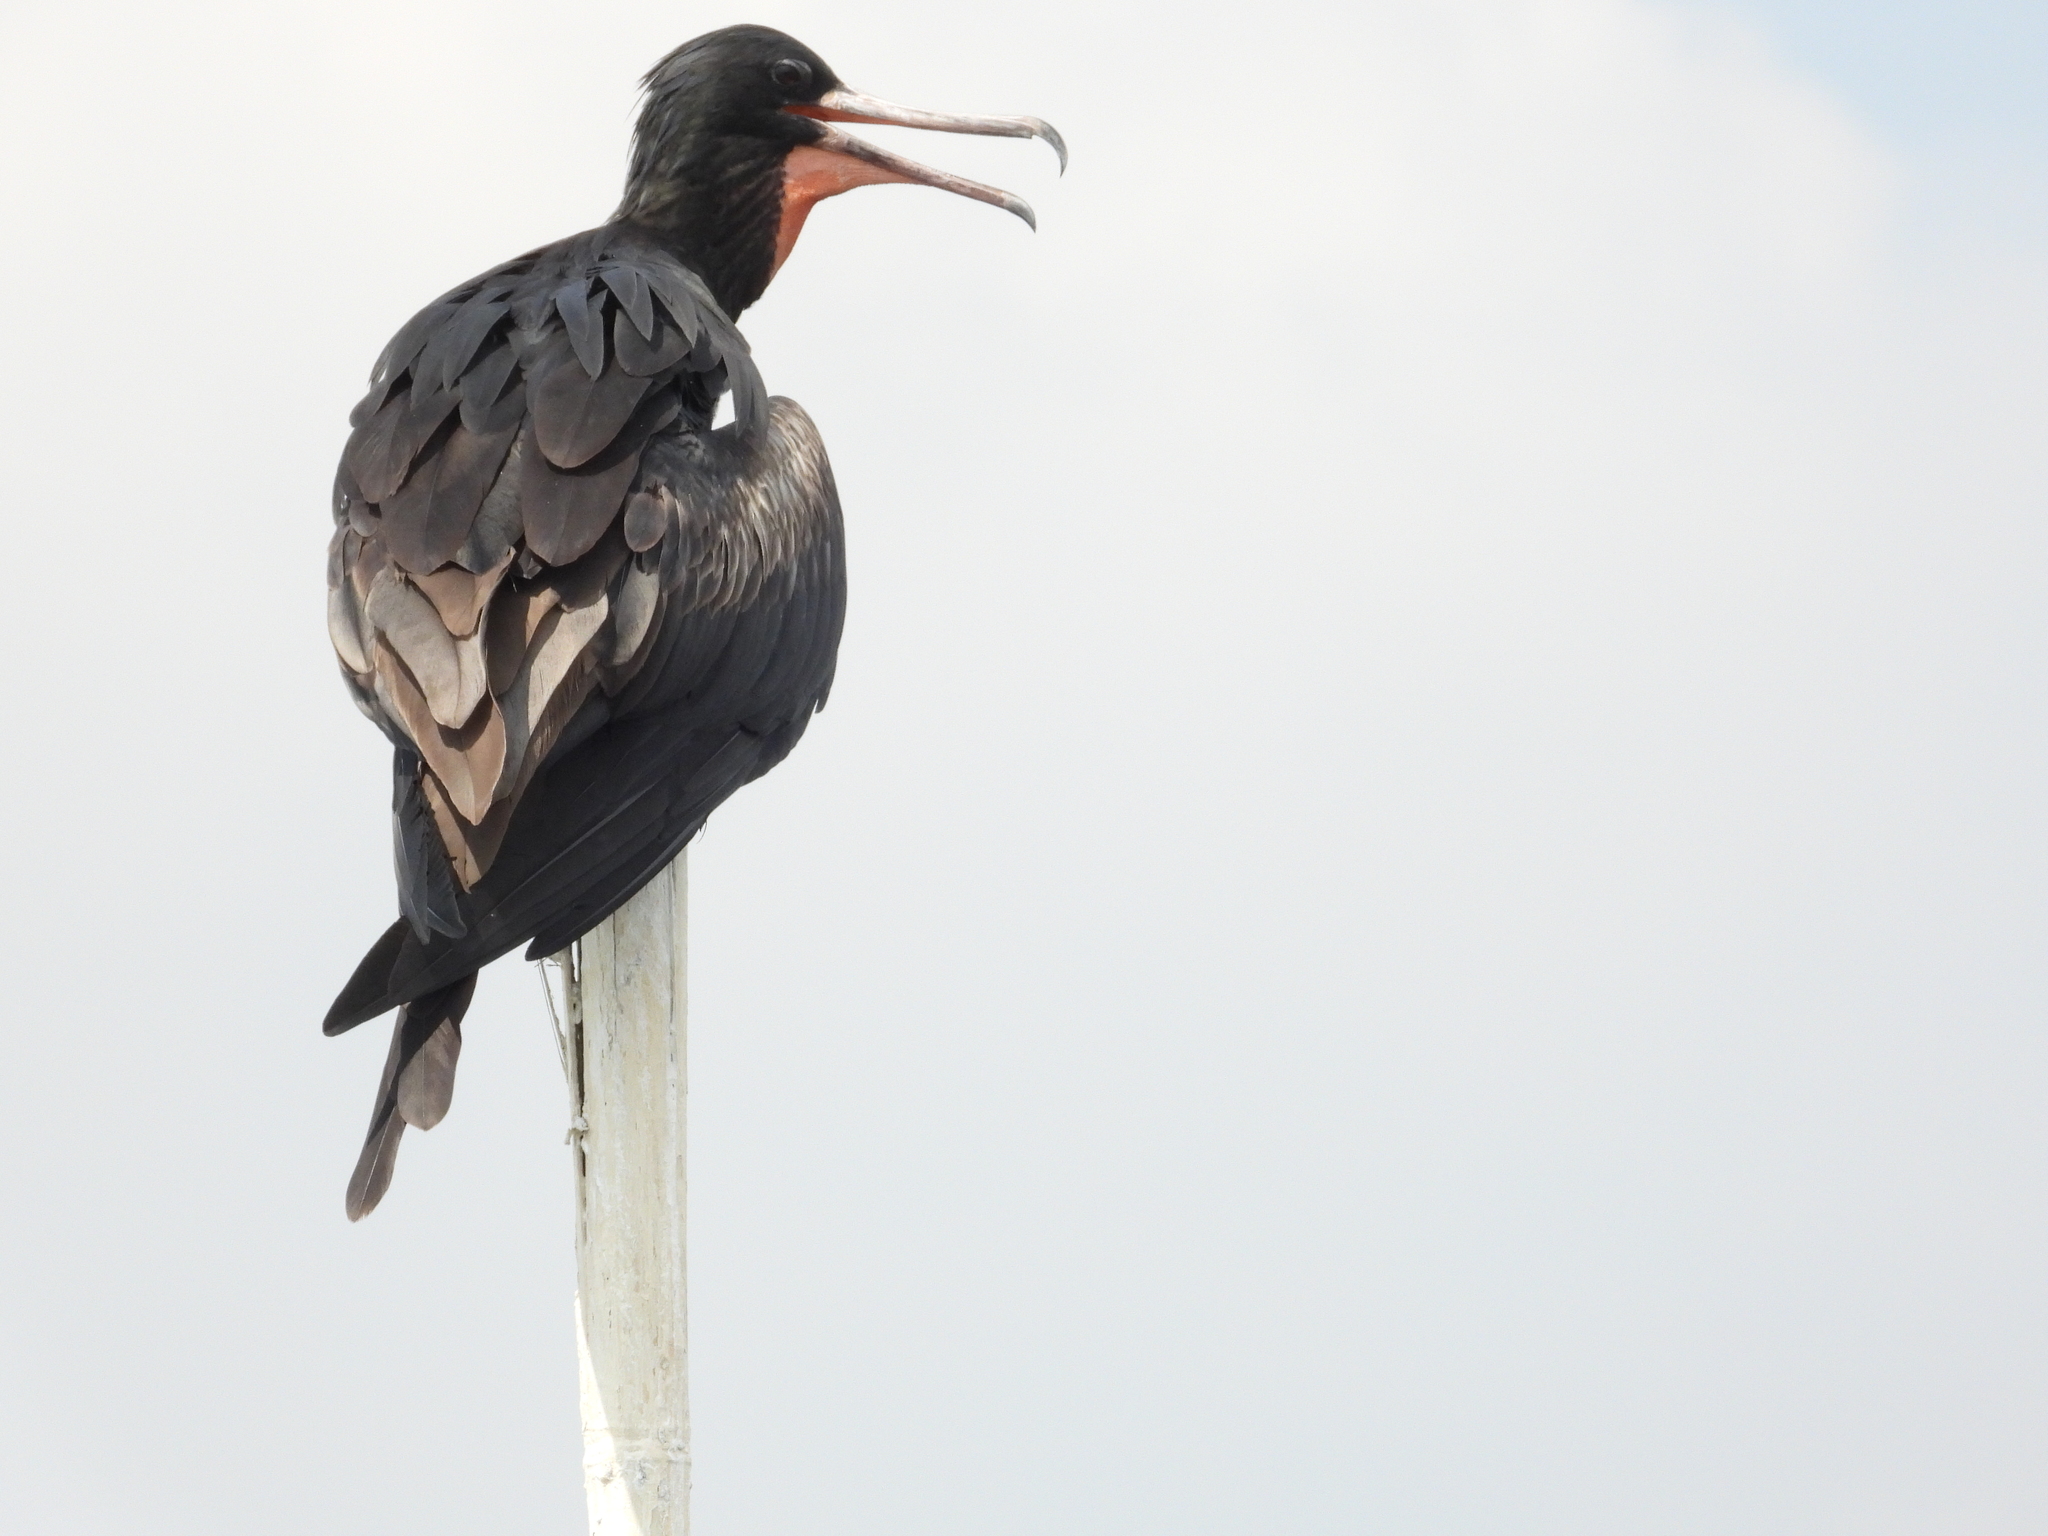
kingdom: Animalia
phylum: Chordata
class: Aves
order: Suliformes
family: Fregatidae
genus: Fregata
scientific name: Fregata andrewsi
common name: Christmas frigatebird
